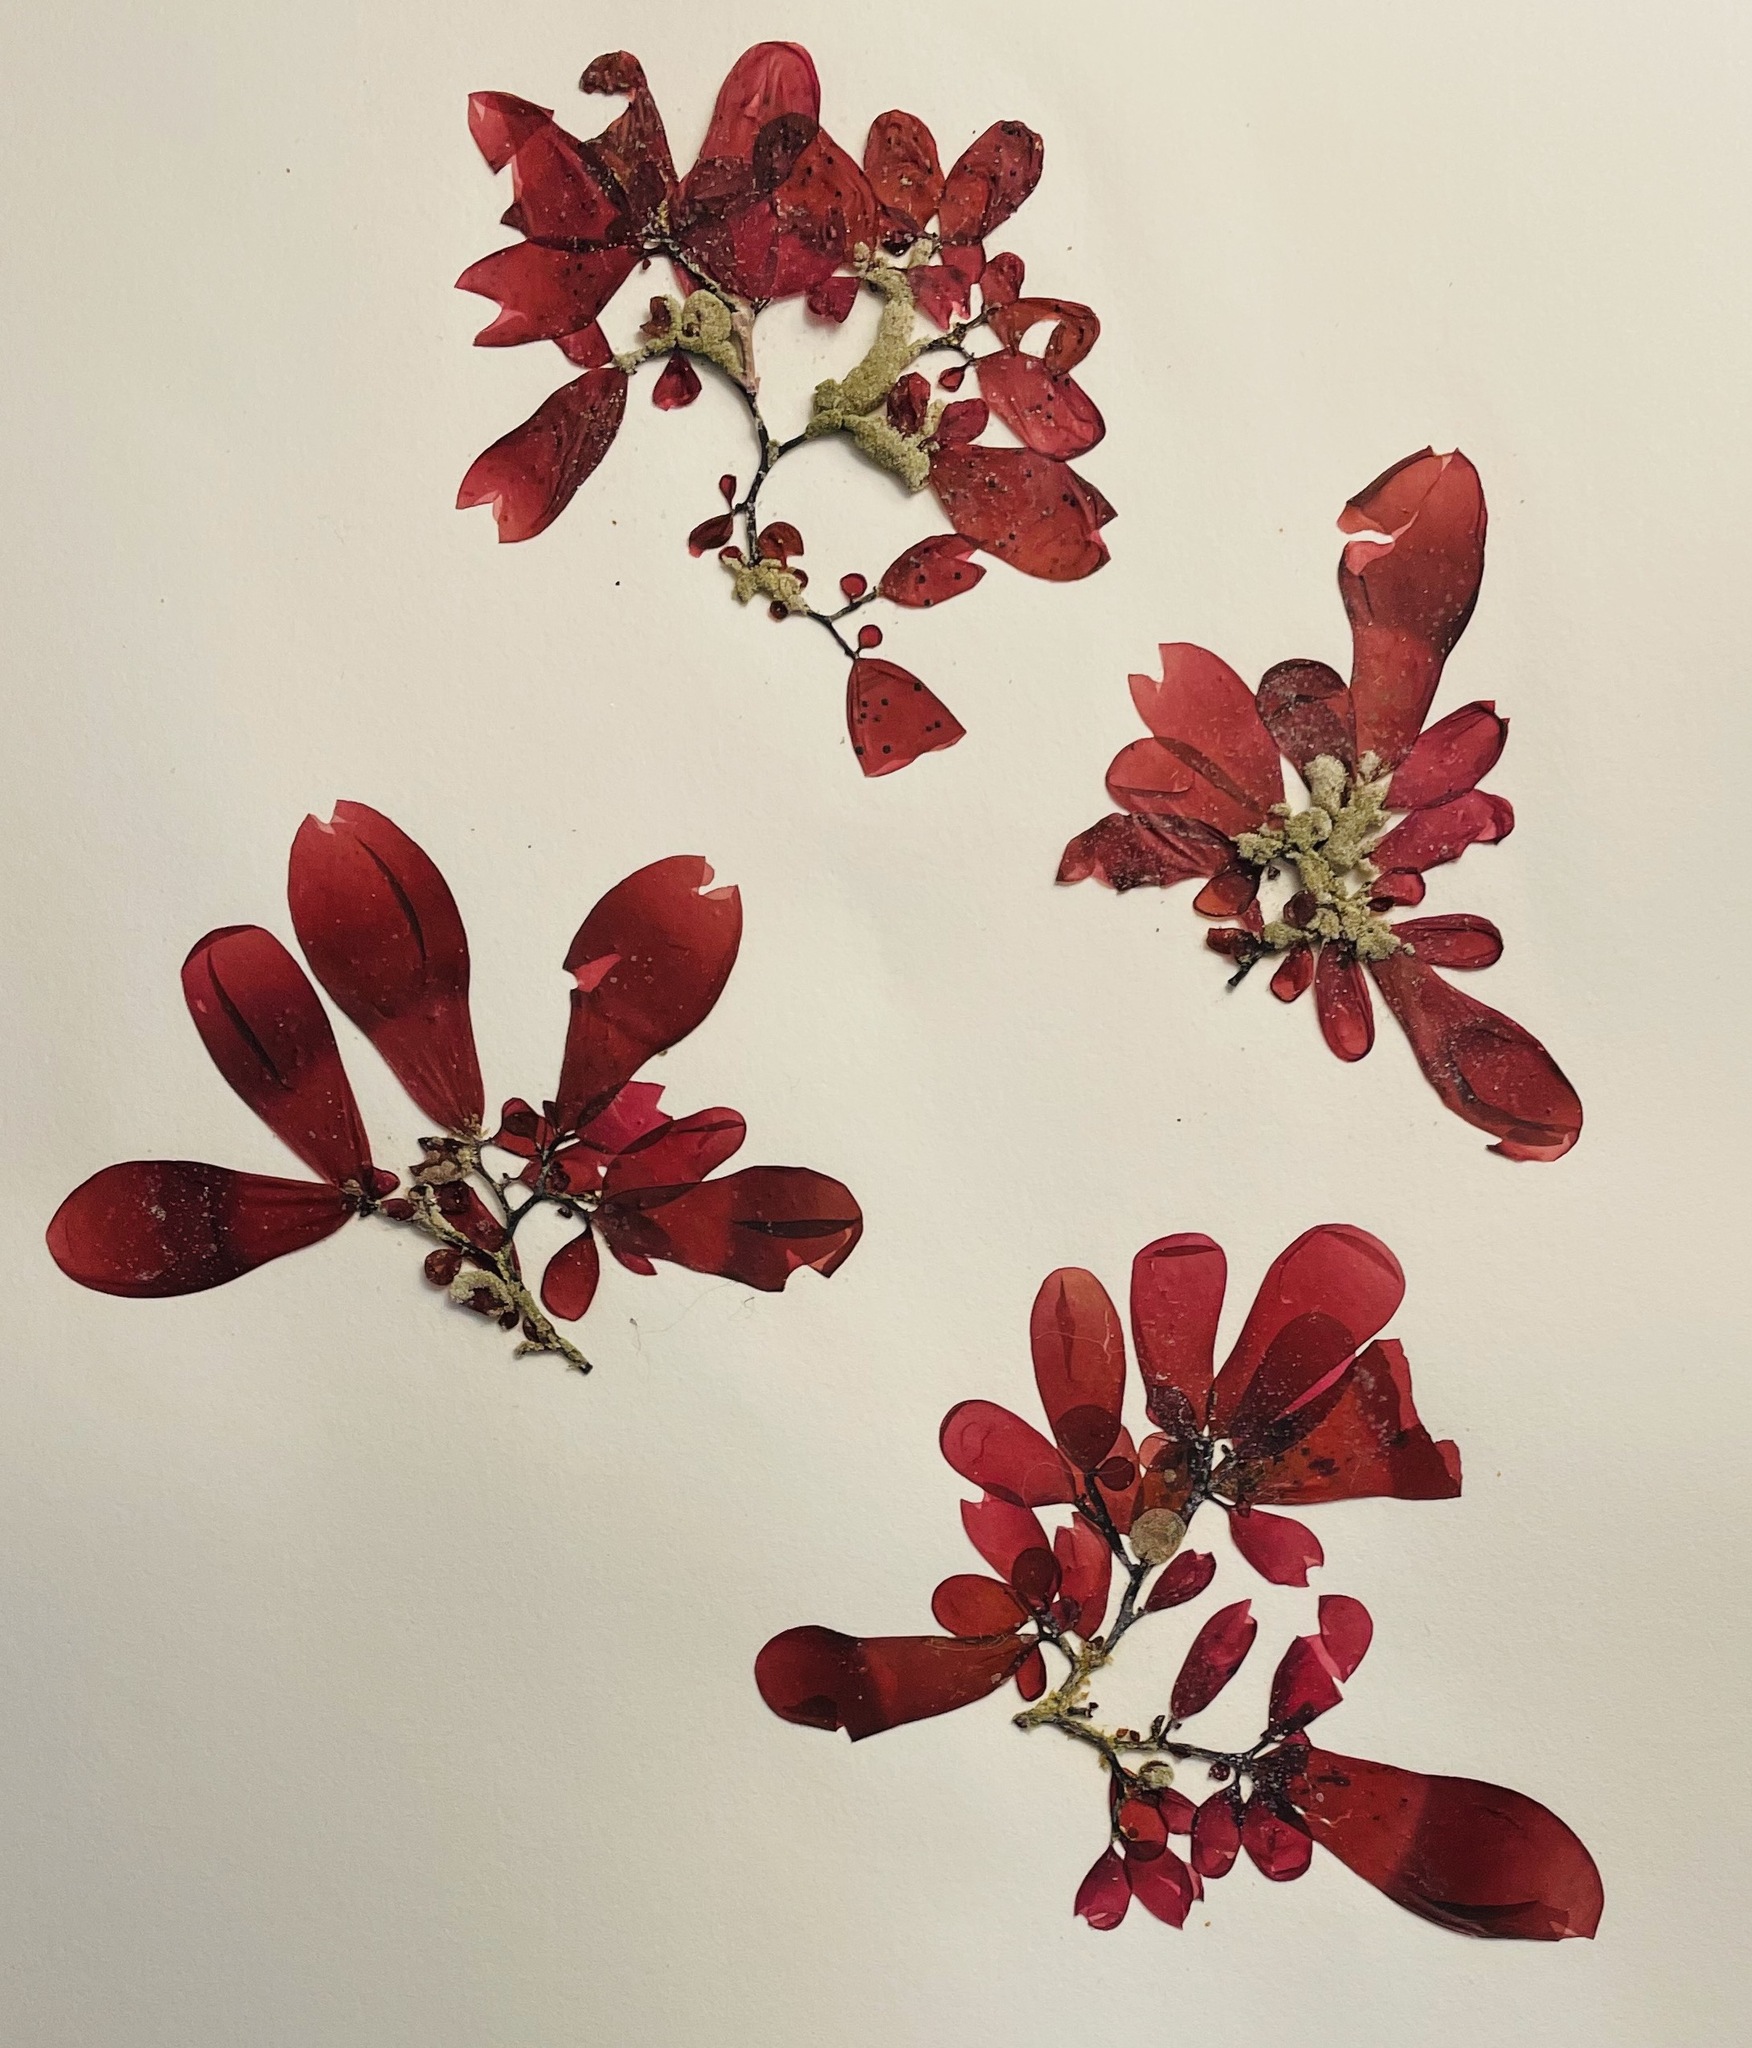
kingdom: Plantae
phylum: Rhodophyta
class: Florideophyceae
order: Rhodymeniales
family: Rhodymeniaceae
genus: Botryocladia
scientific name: Botryocladia pseudodichotoma
